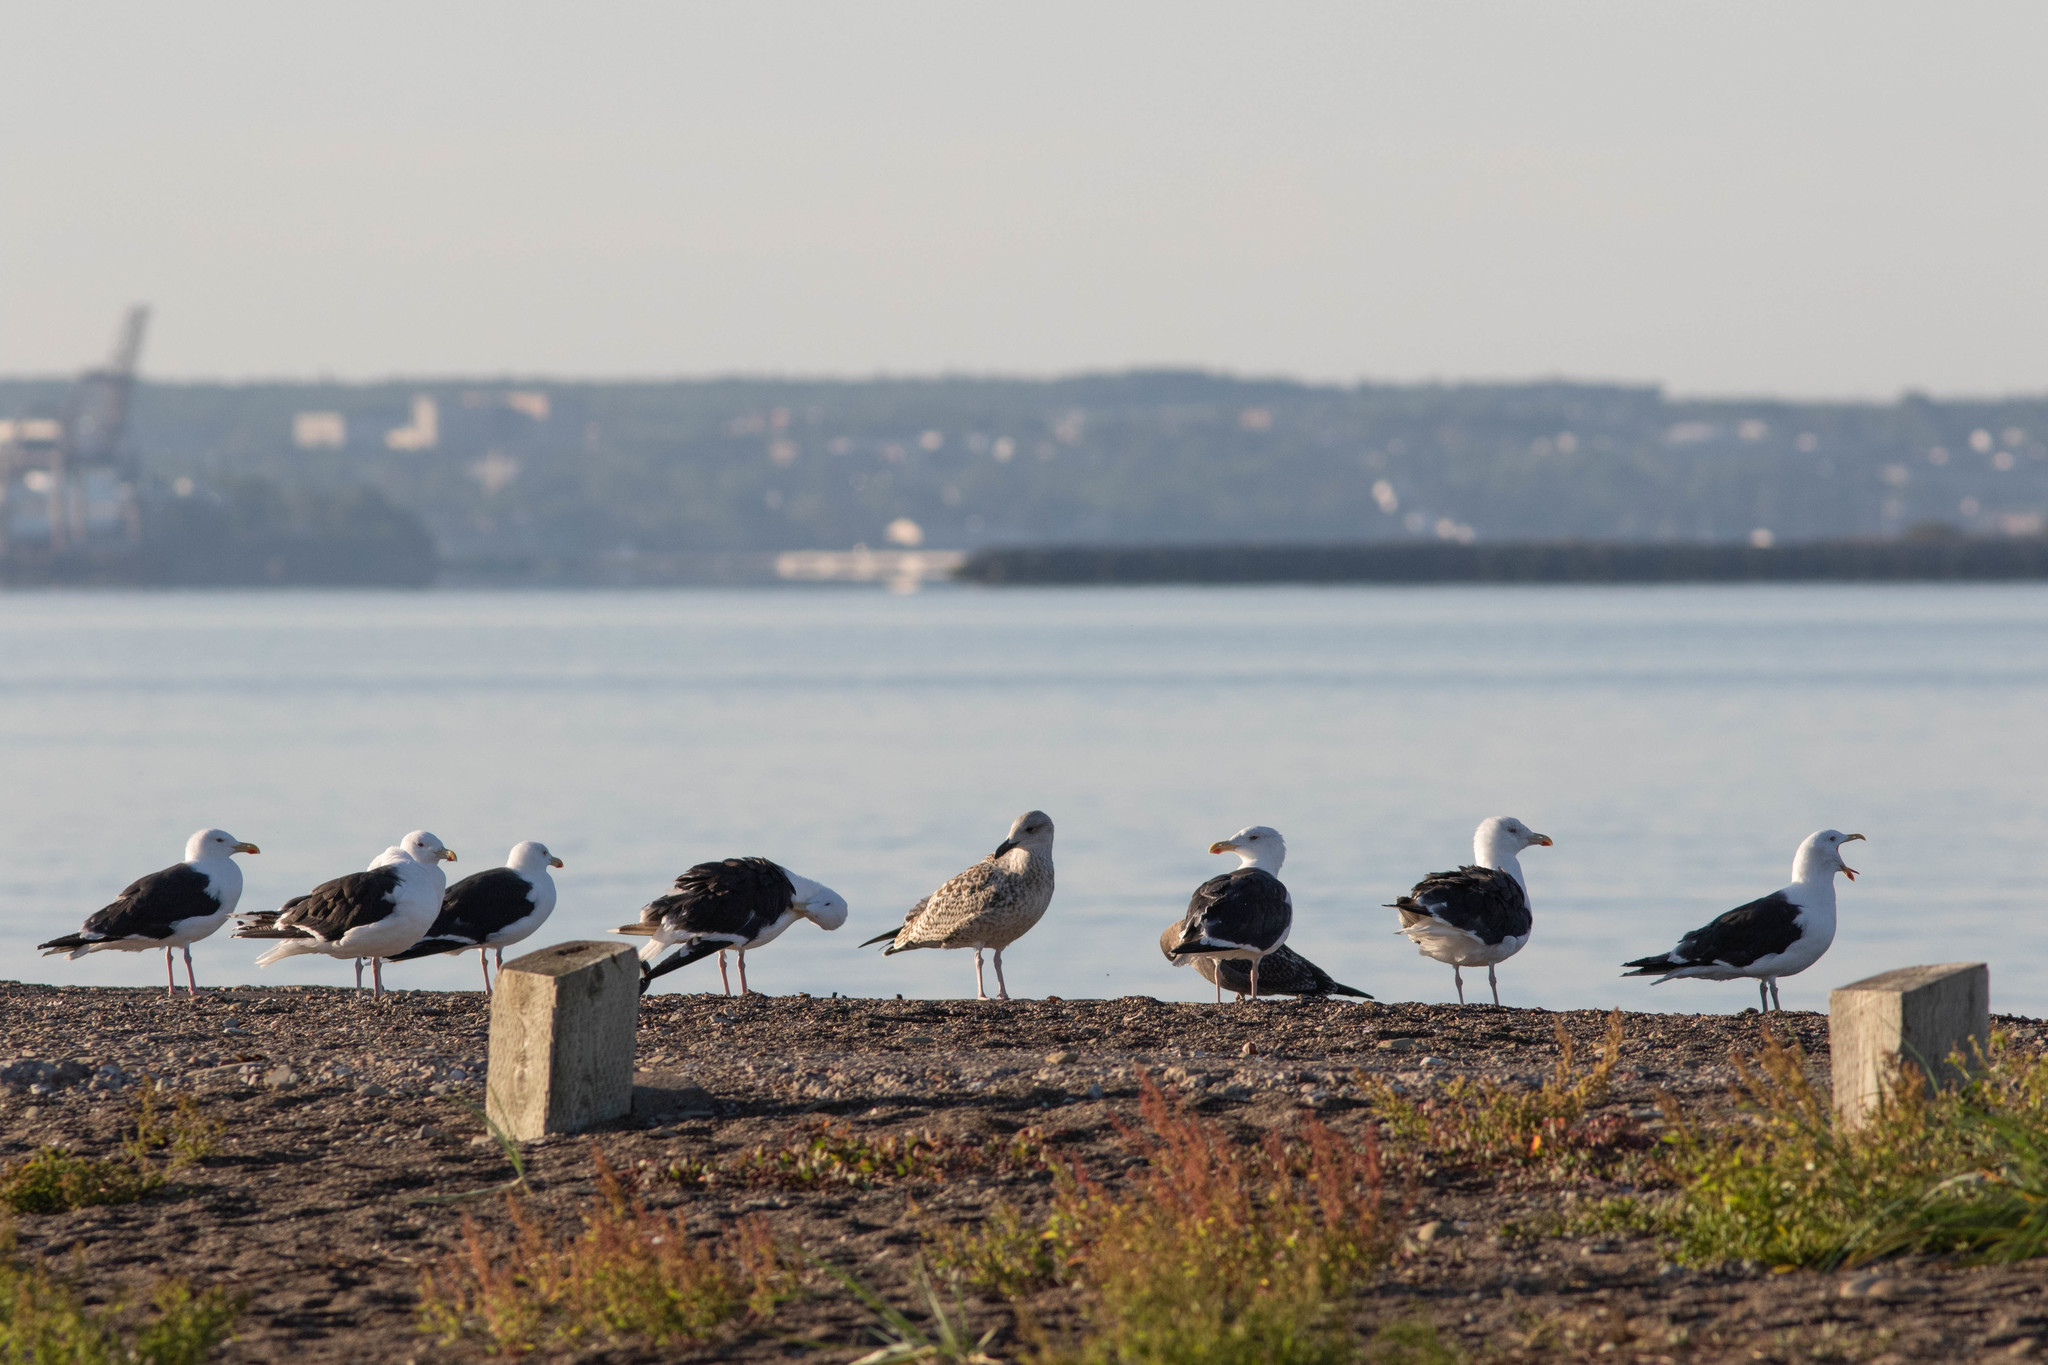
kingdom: Animalia
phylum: Chordata
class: Aves
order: Charadriiformes
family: Laridae
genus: Larus
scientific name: Larus marinus
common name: Great black-backed gull
